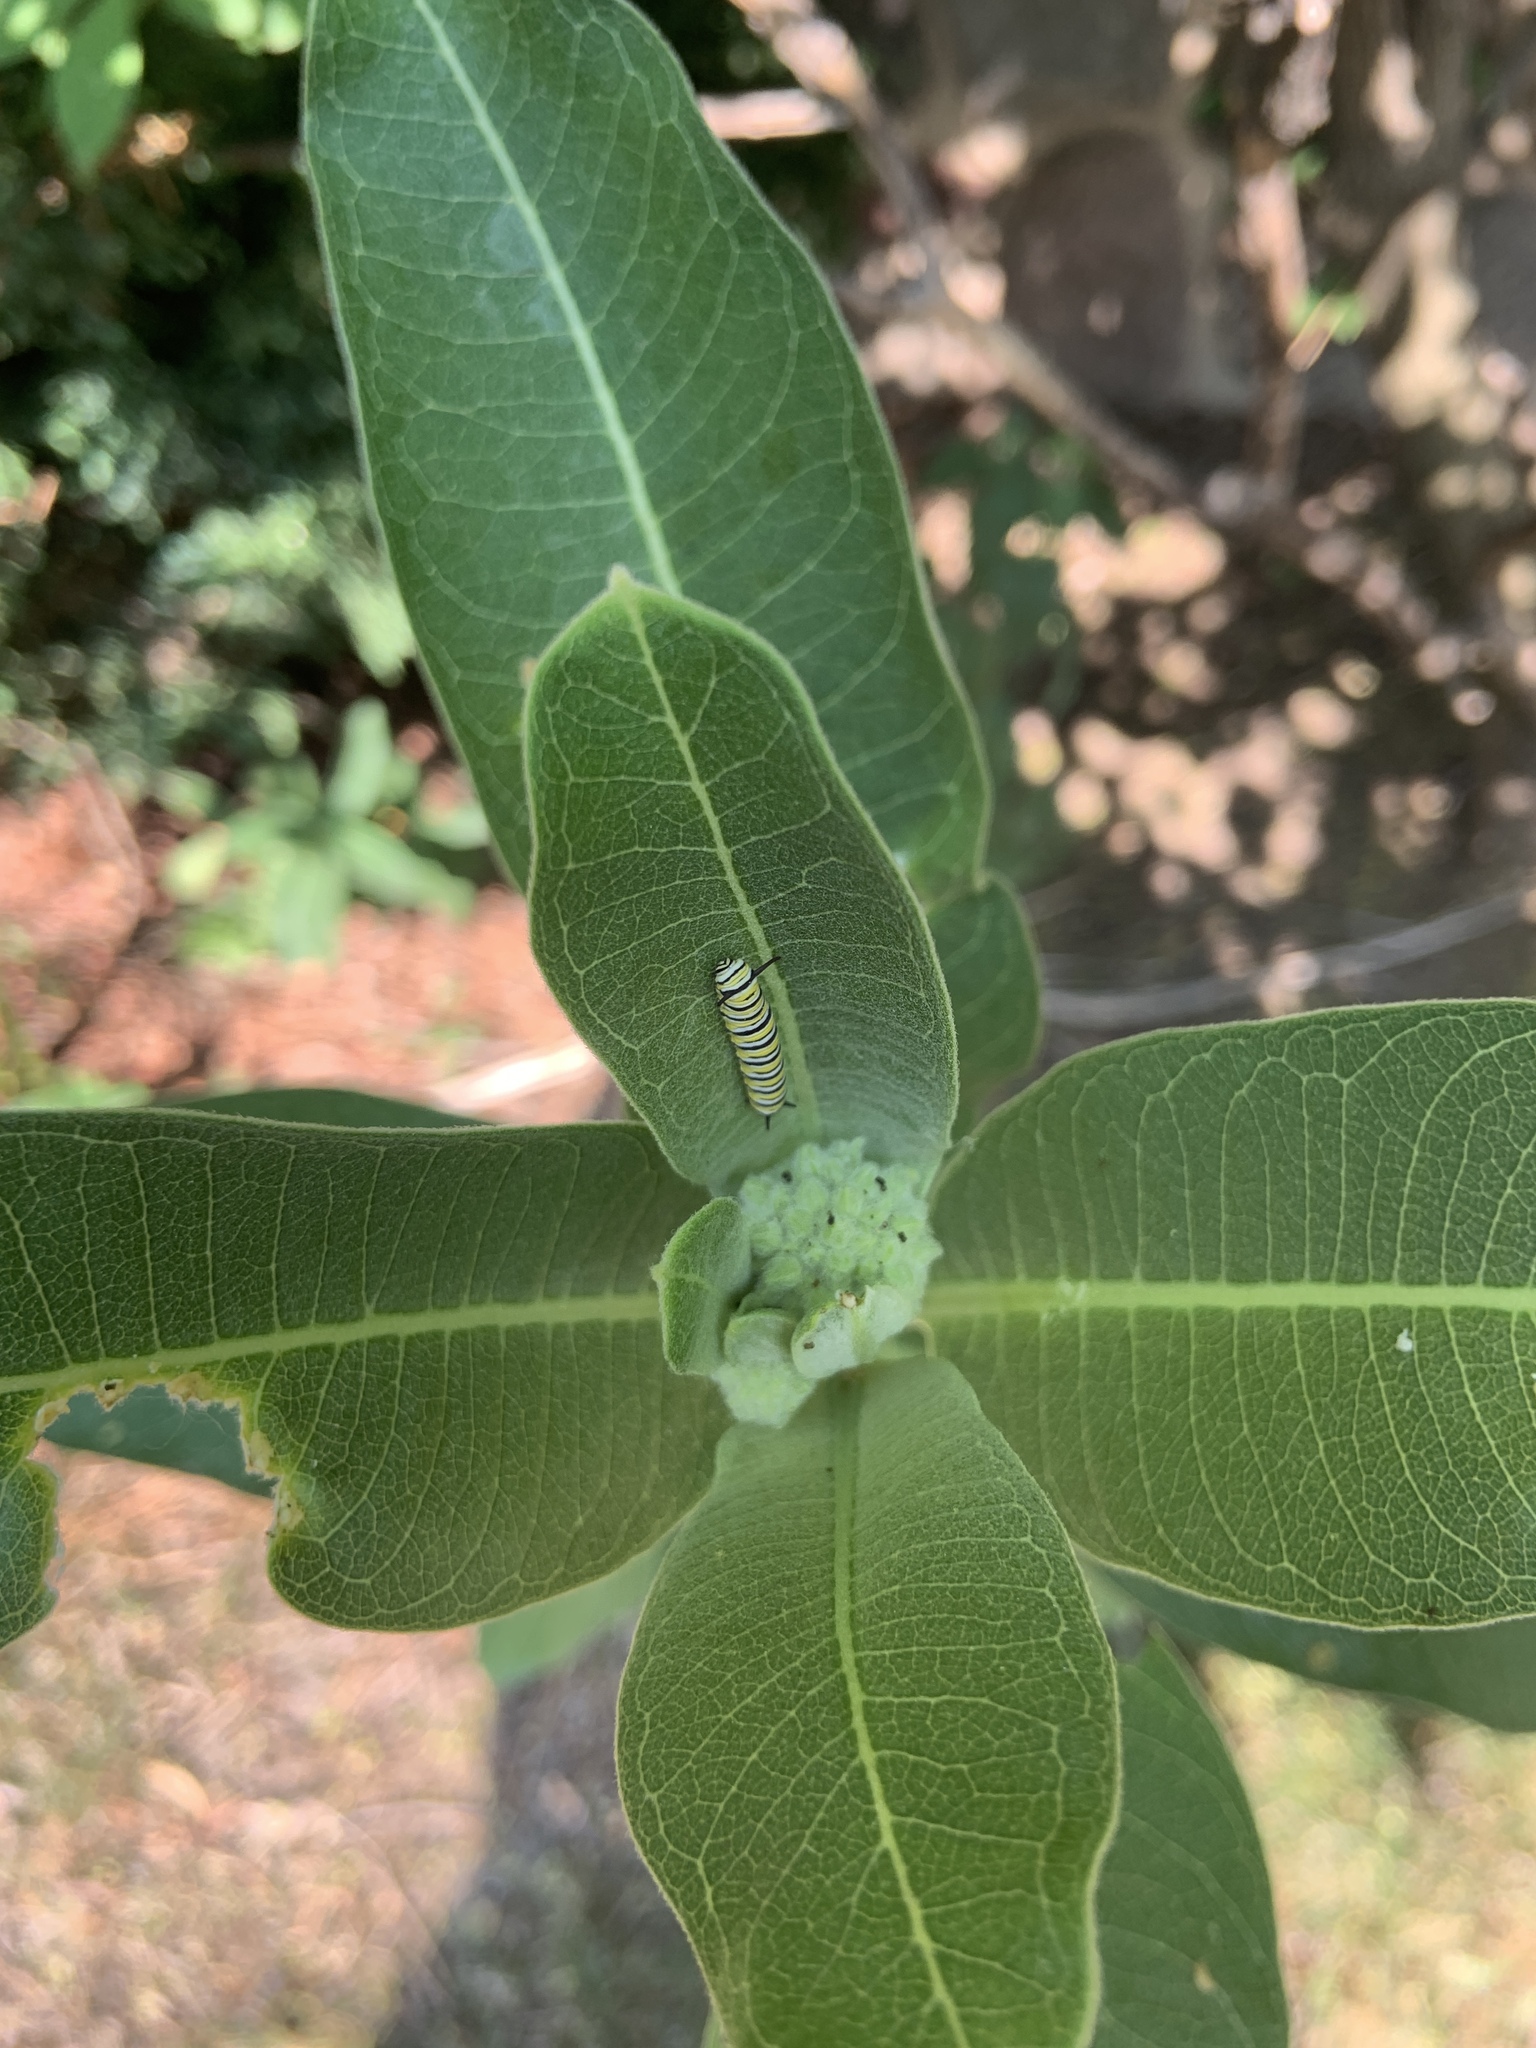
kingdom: Animalia
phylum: Arthropoda
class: Insecta
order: Lepidoptera
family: Nymphalidae
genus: Danaus
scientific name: Danaus plexippus
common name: Monarch
